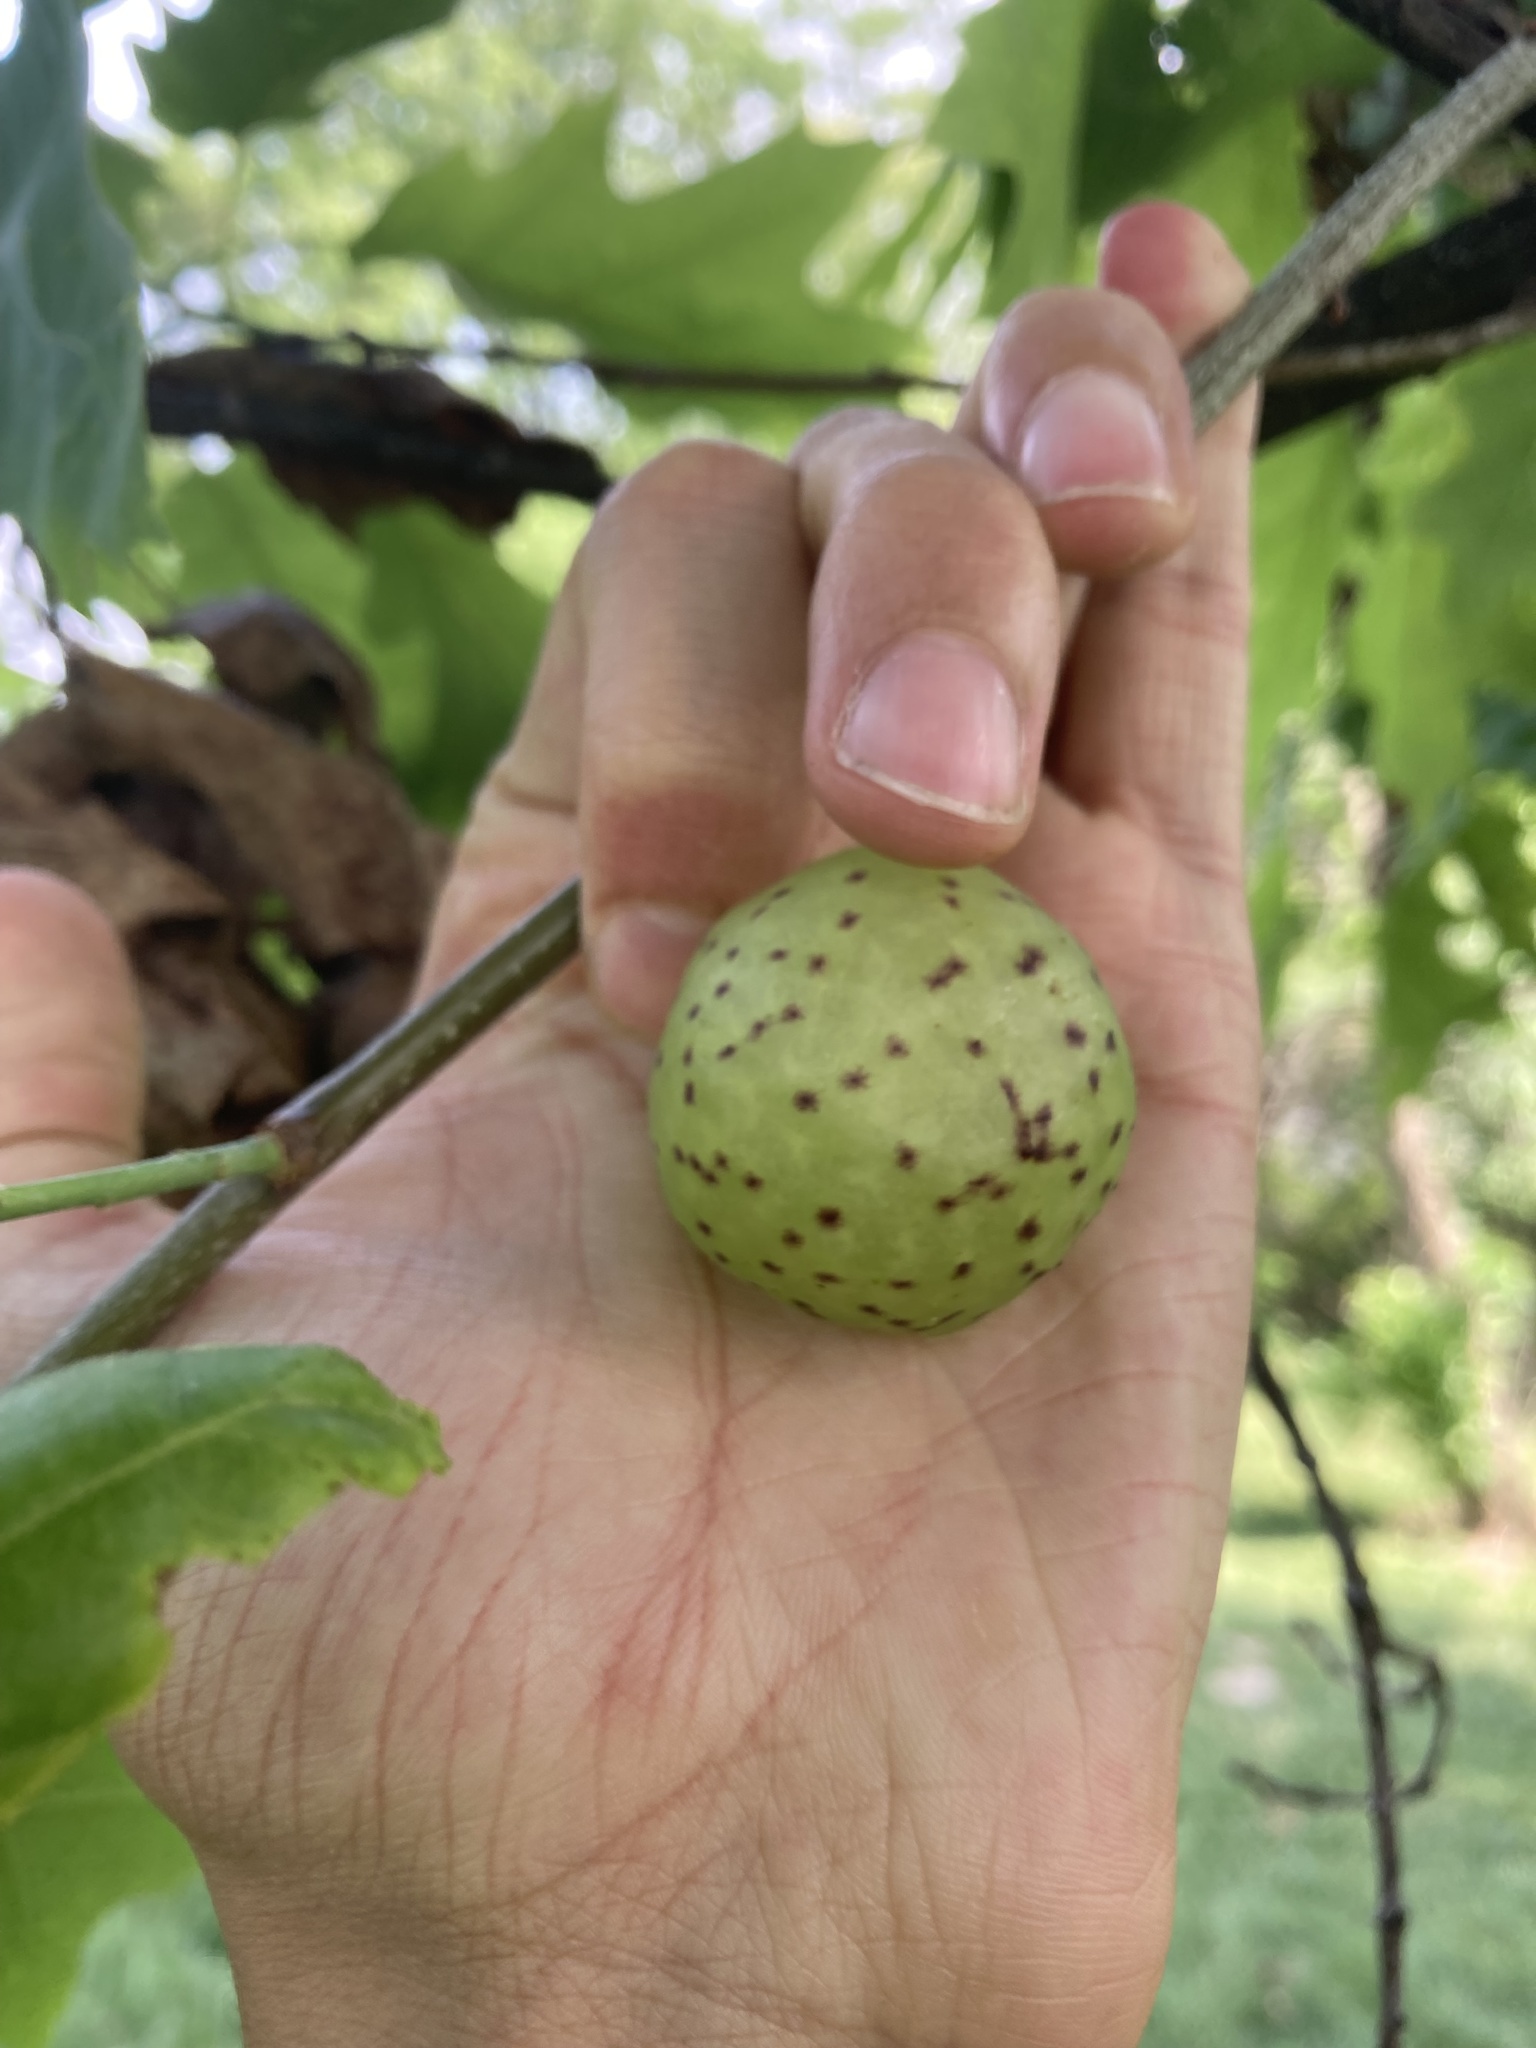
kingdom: Animalia
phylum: Arthropoda
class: Insecta
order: Hymenoptera
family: Cynipidae
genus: Amphibolips
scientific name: Amphibolips
